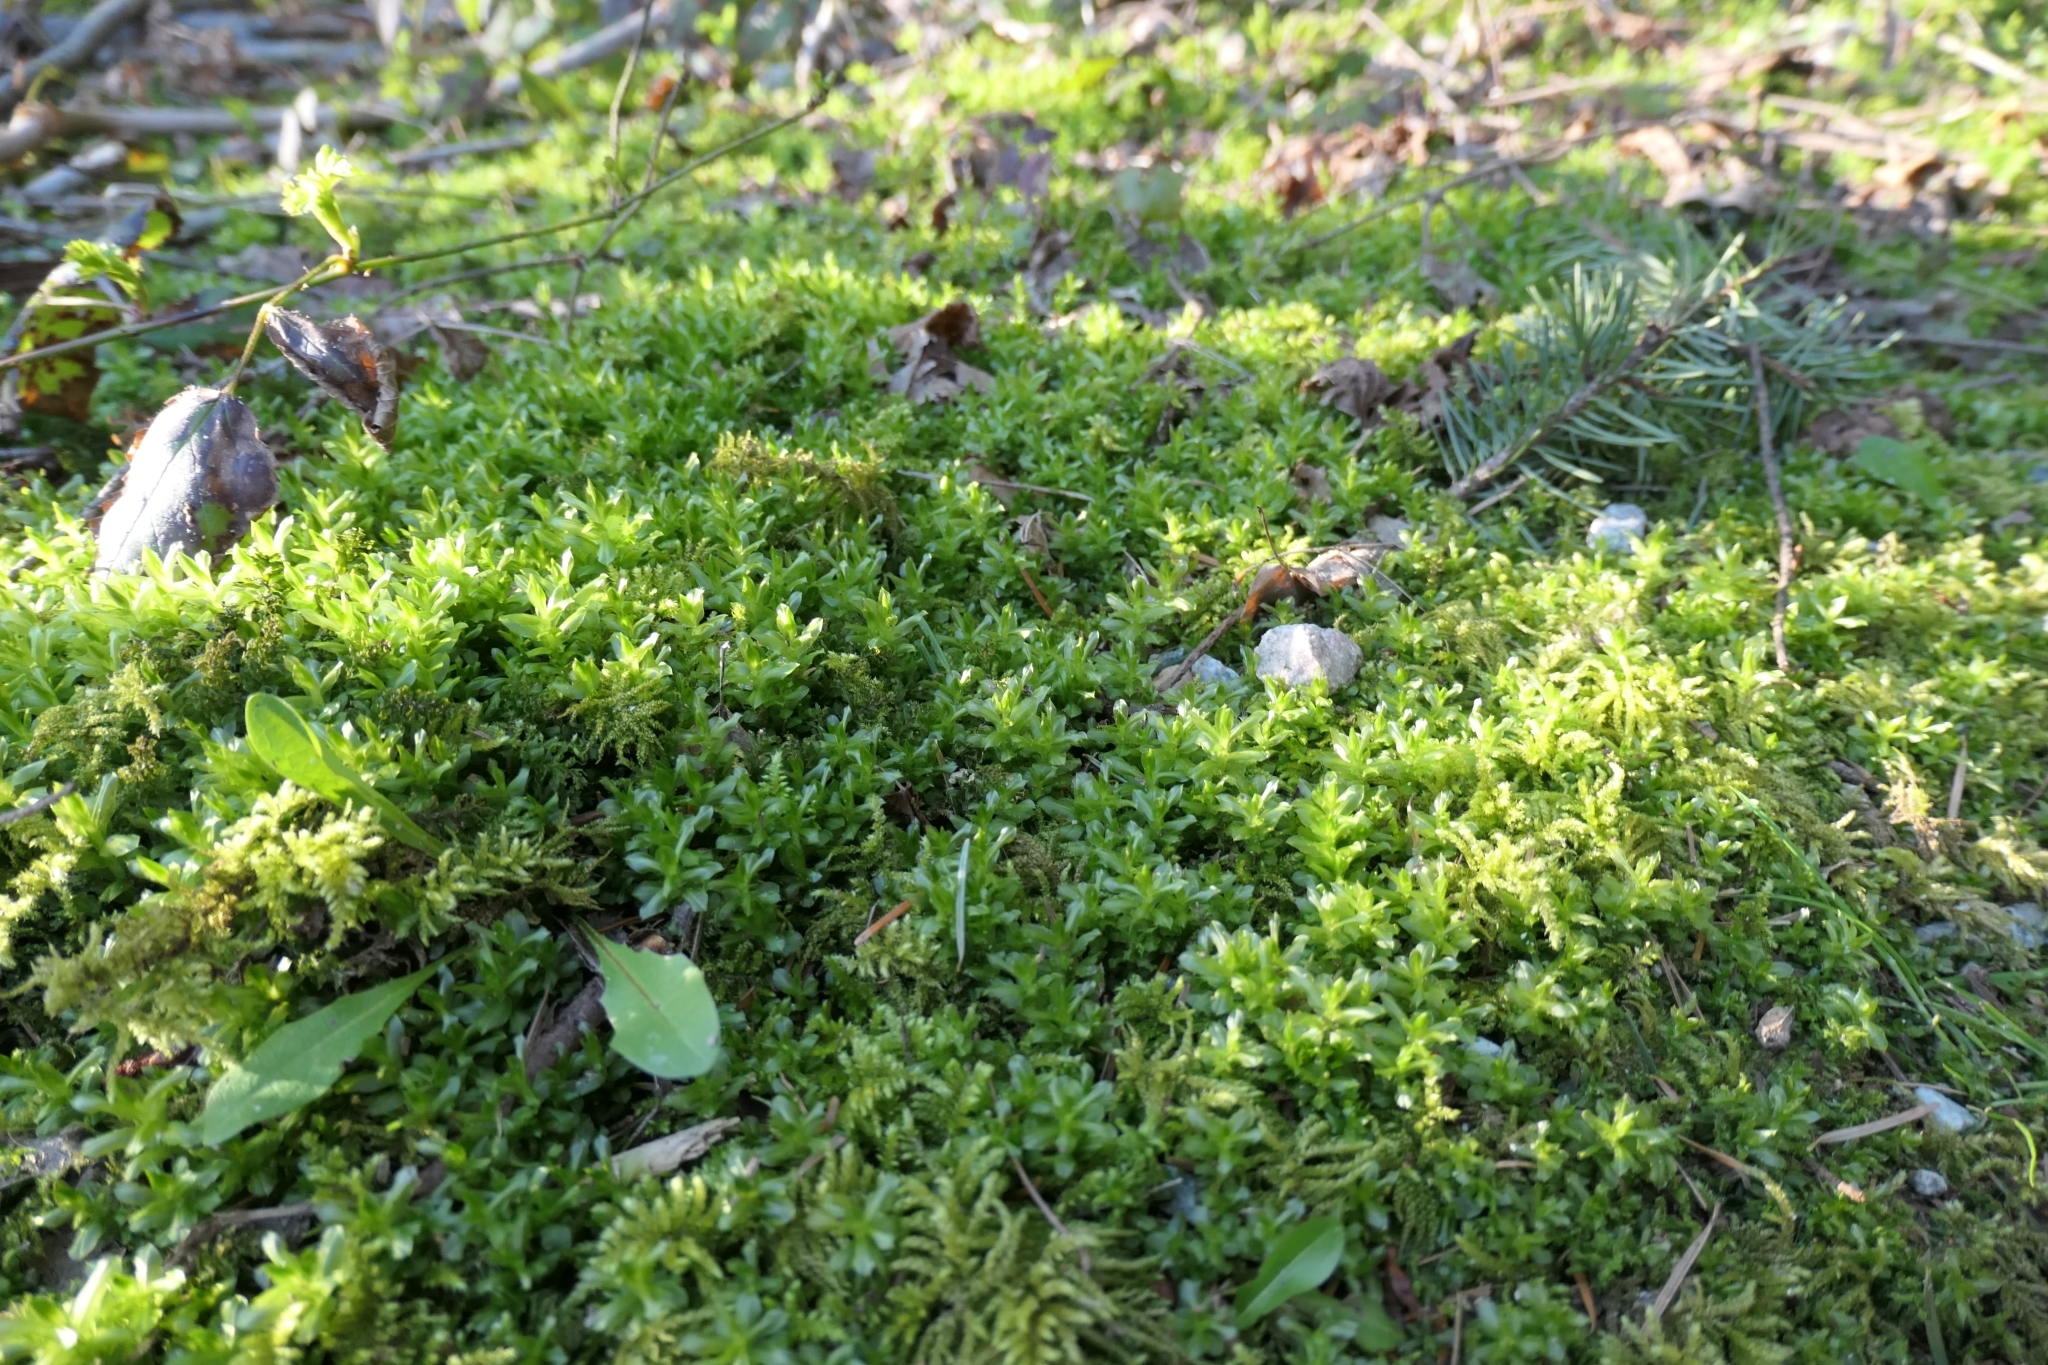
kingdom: Plantae
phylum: Bryophyta
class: Bryopsida
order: Bryales
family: Mniaceae
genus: Plagiomnium
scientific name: Plagiomnium insigne
